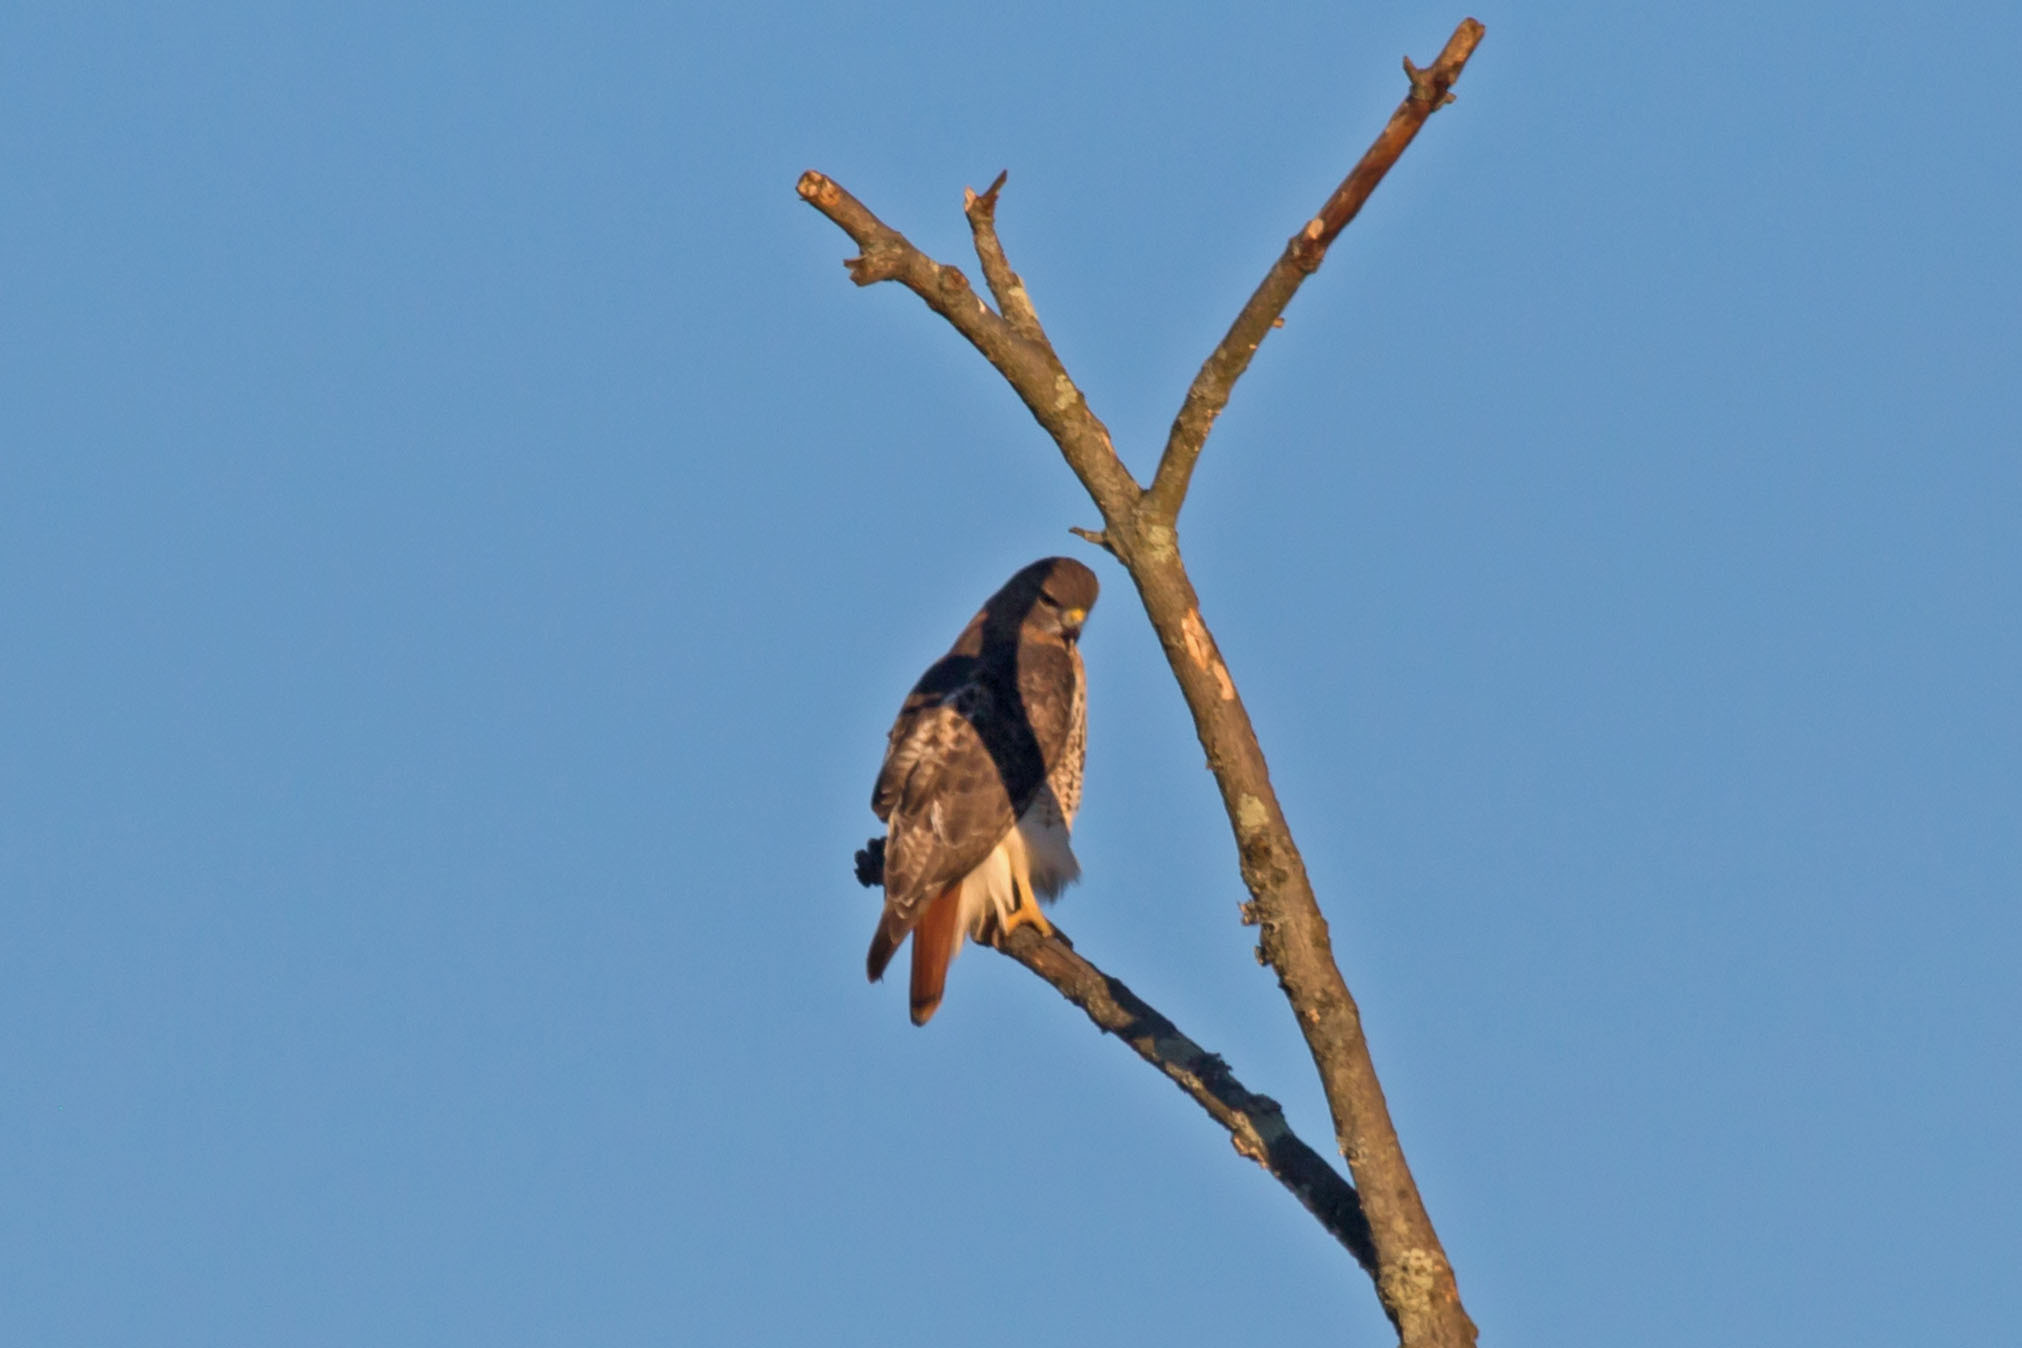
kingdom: Animalia
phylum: Chordata
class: Aves
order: Accipitriformes
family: Accipitridae
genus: Buteo
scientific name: Buteo jamaicensis
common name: Red-tailed hawk
